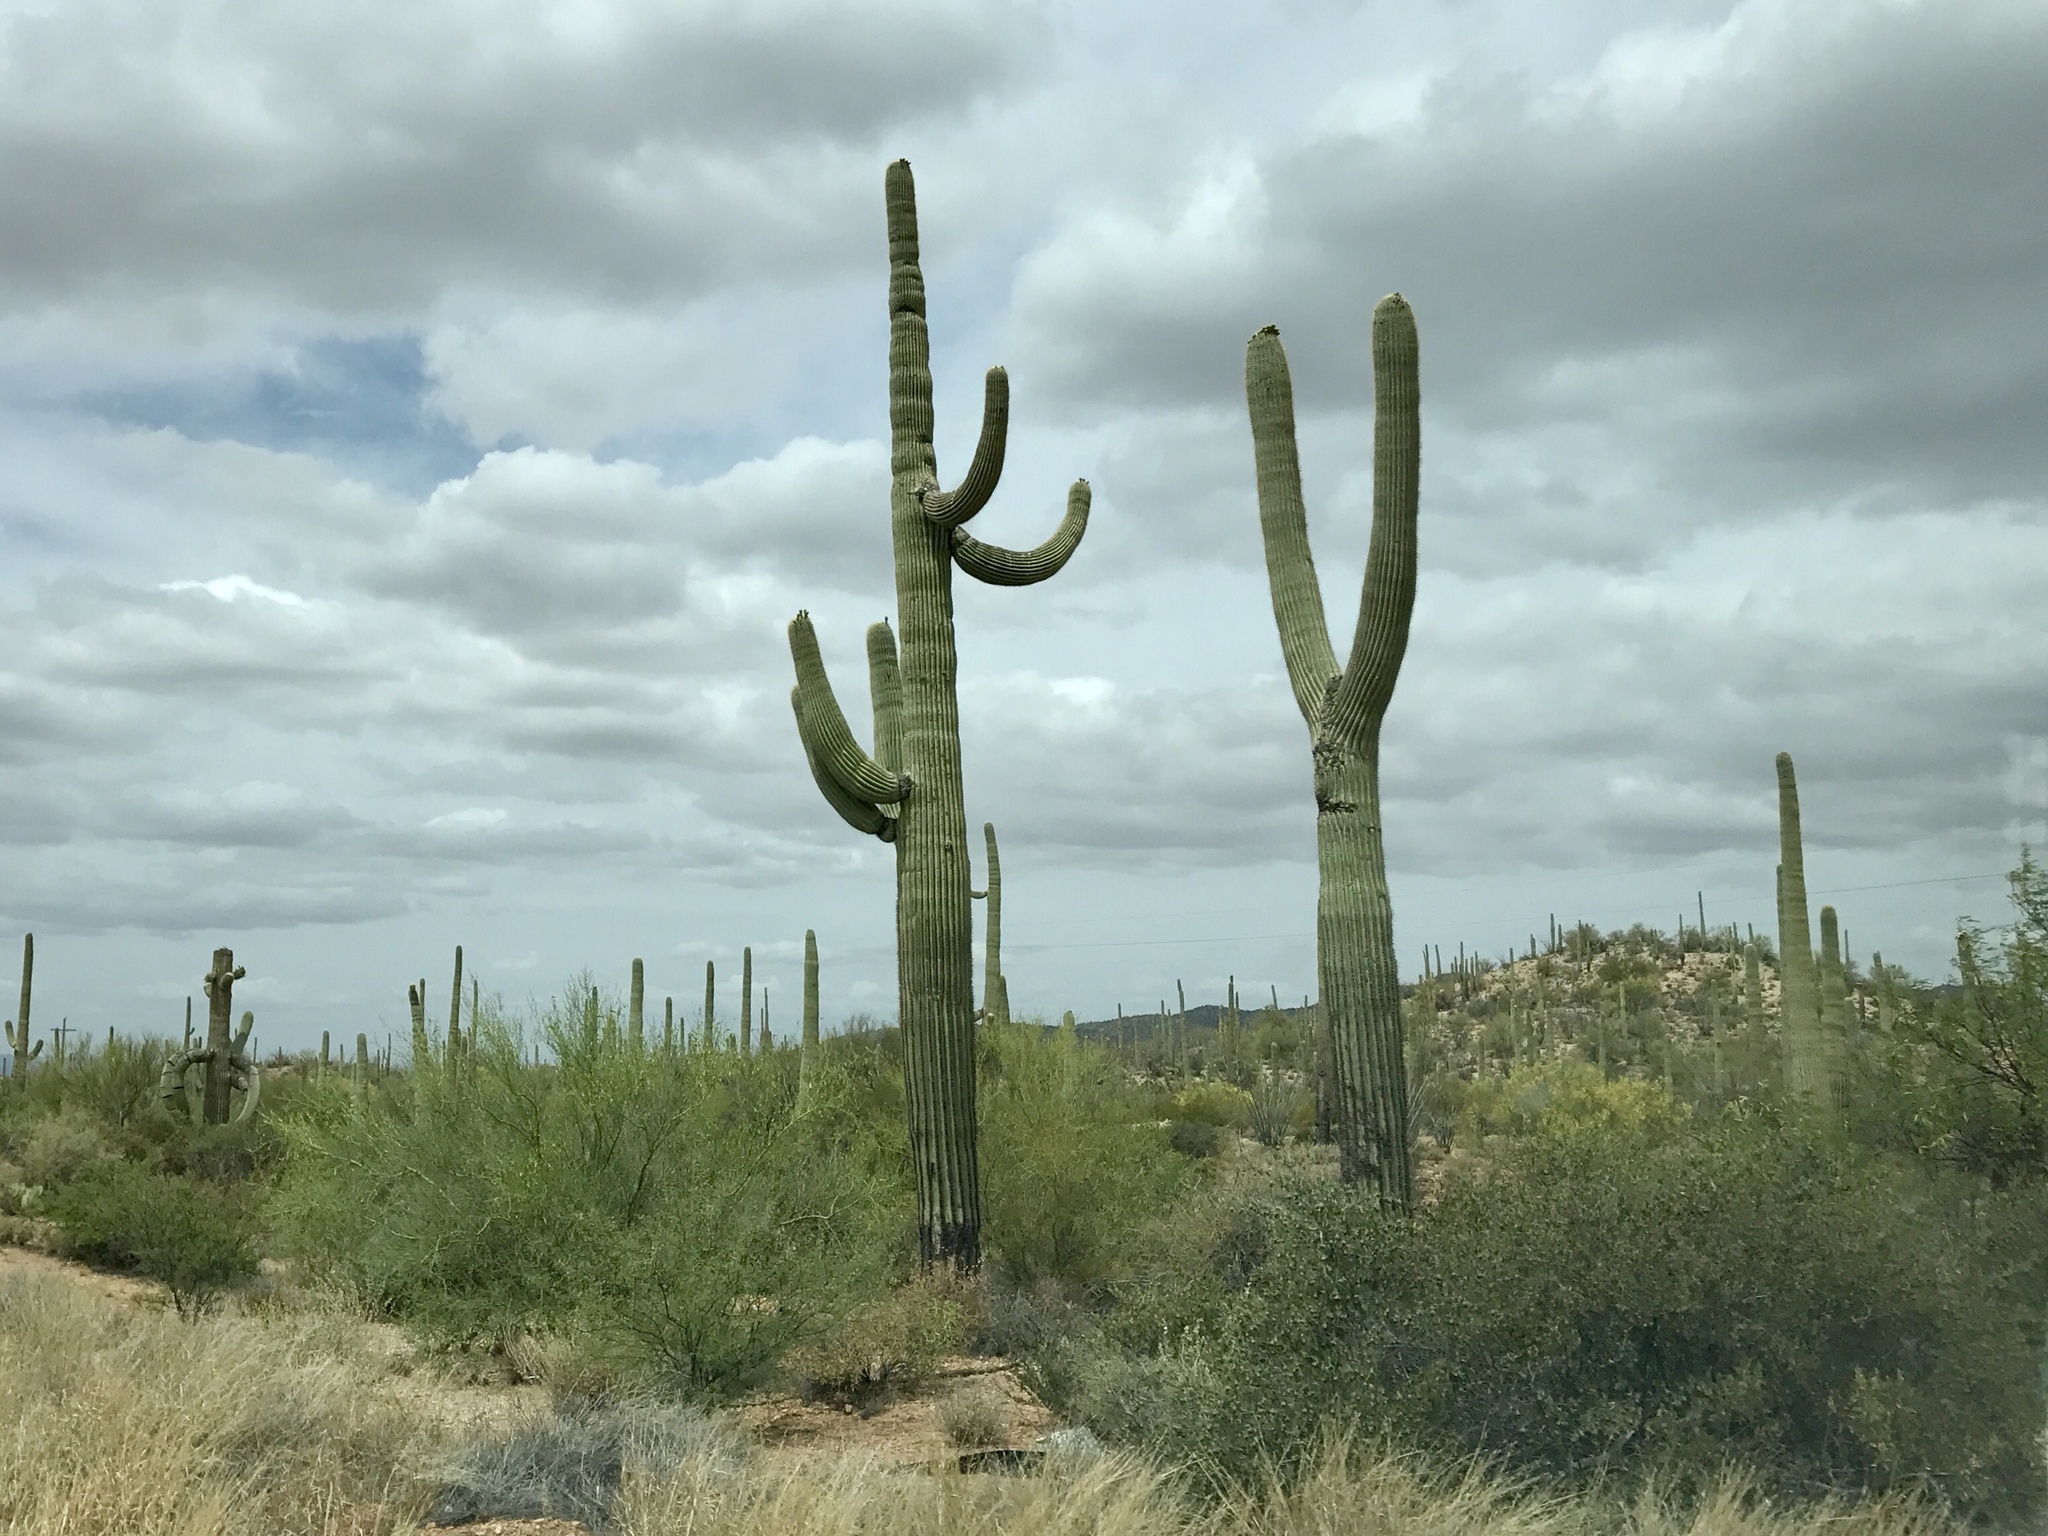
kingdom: Plantae
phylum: Tracheophyta
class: Magnoliopsida
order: Caryophyllales
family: Cactaceae
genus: Carnegiea
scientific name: Carnegiea gigantea
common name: Saguaro
